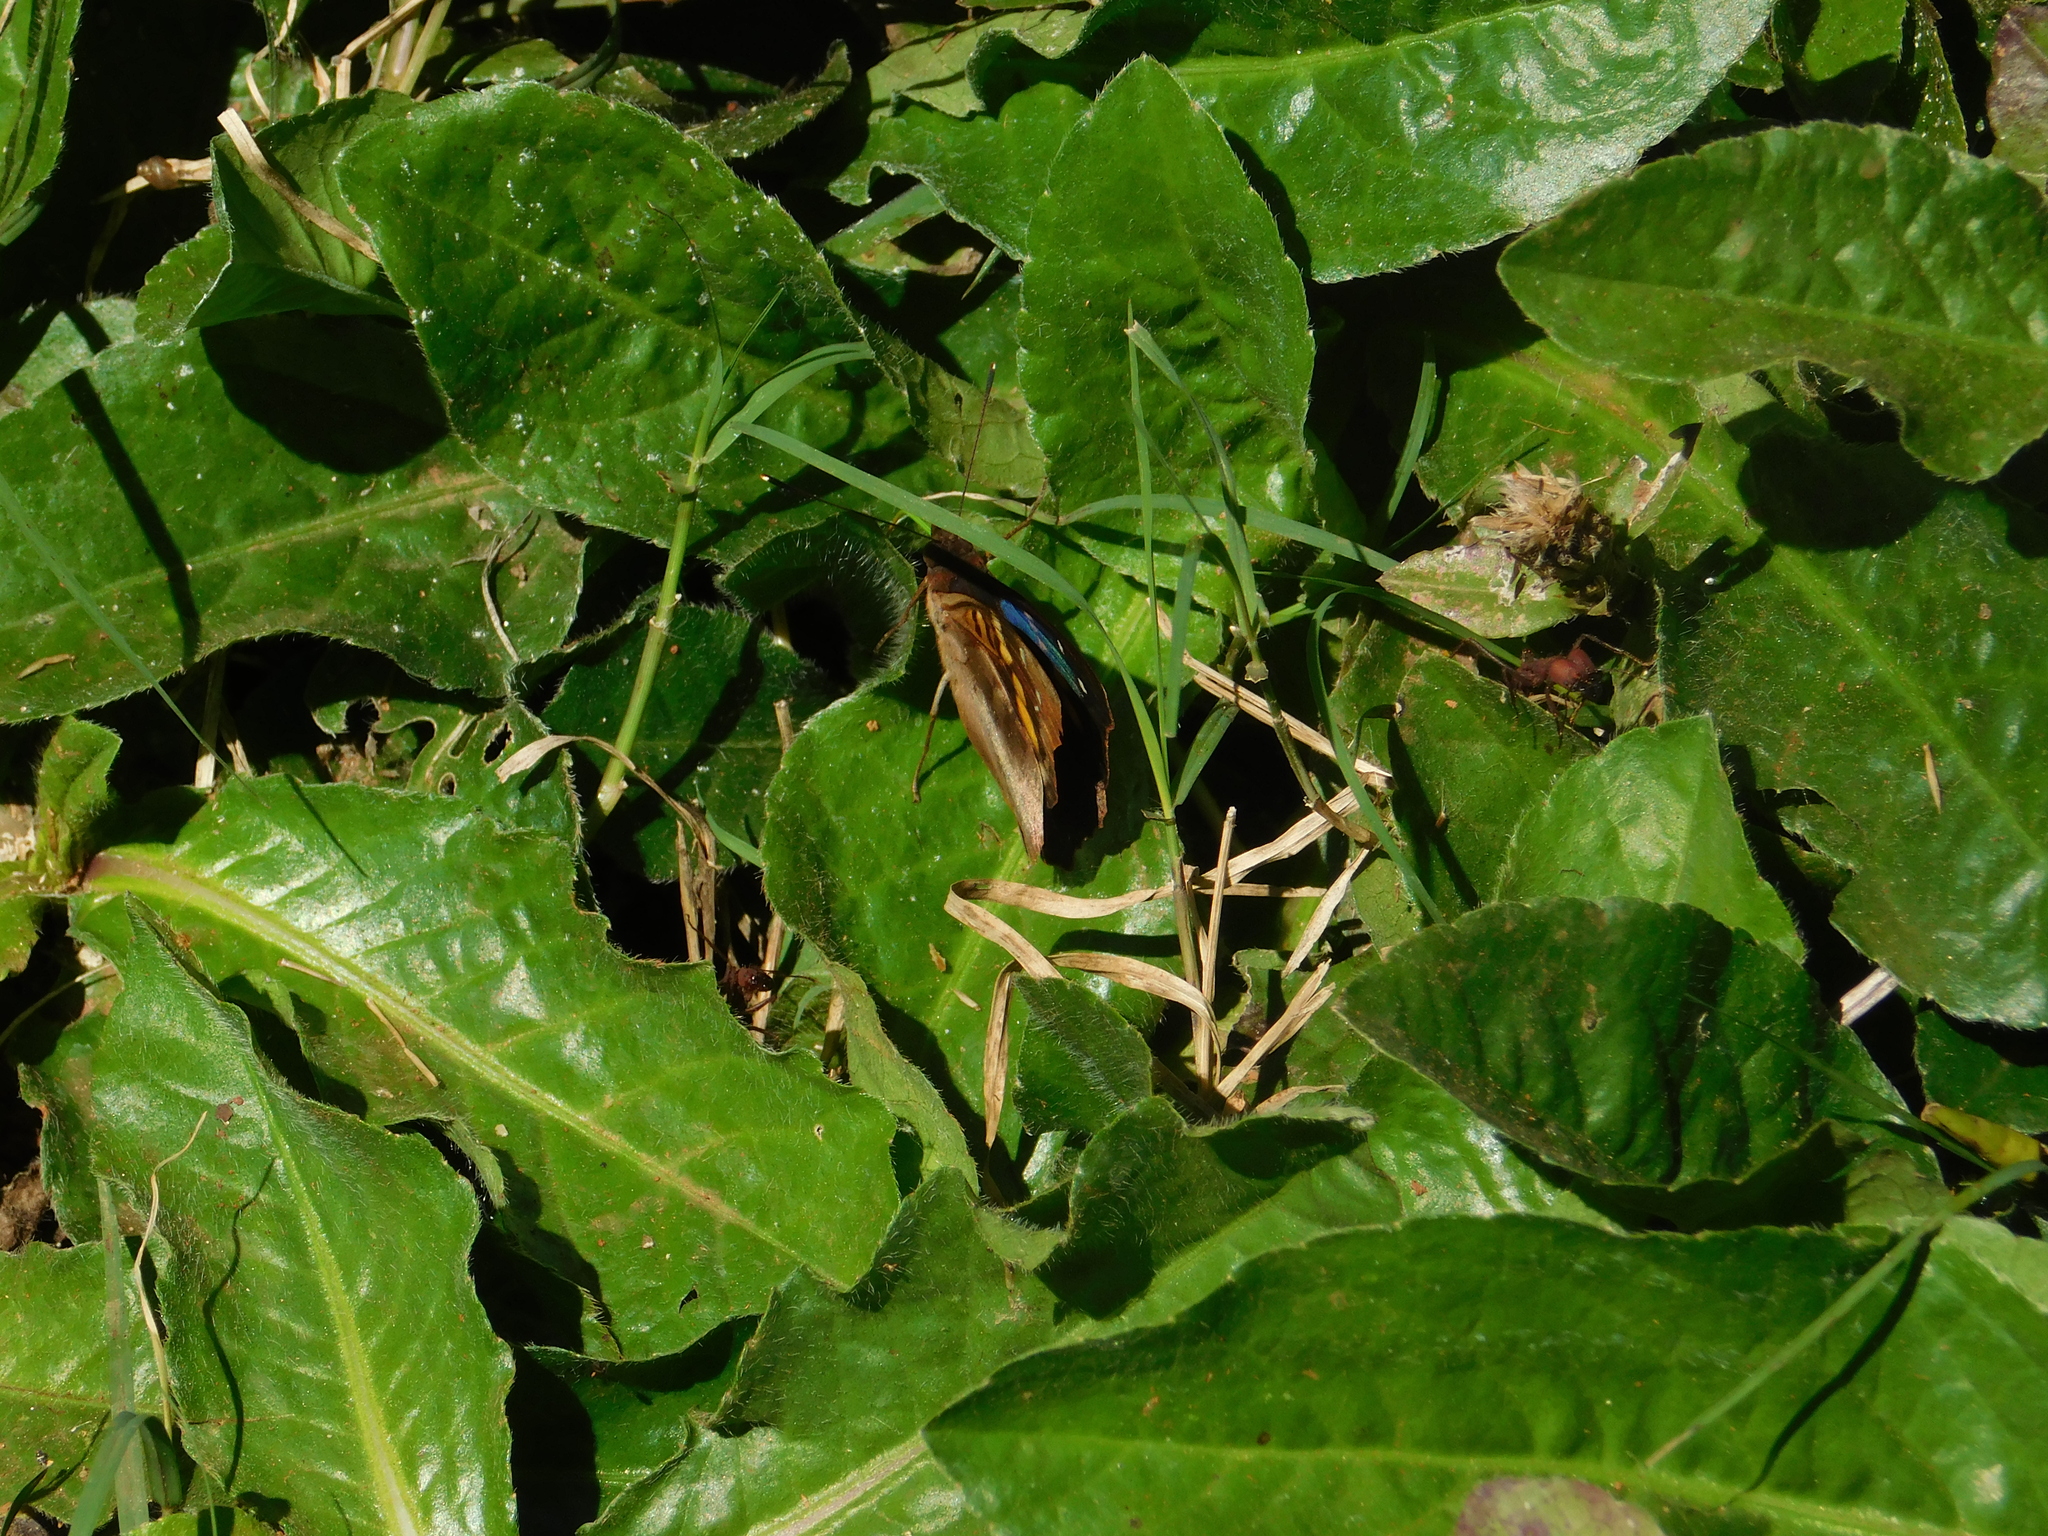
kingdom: Animalia
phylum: Arthropoda
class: Insecta
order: Lepidoptera
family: Nymphalidae
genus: Doxocopa
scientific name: Doxocopa agathina
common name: Agathina emperor
